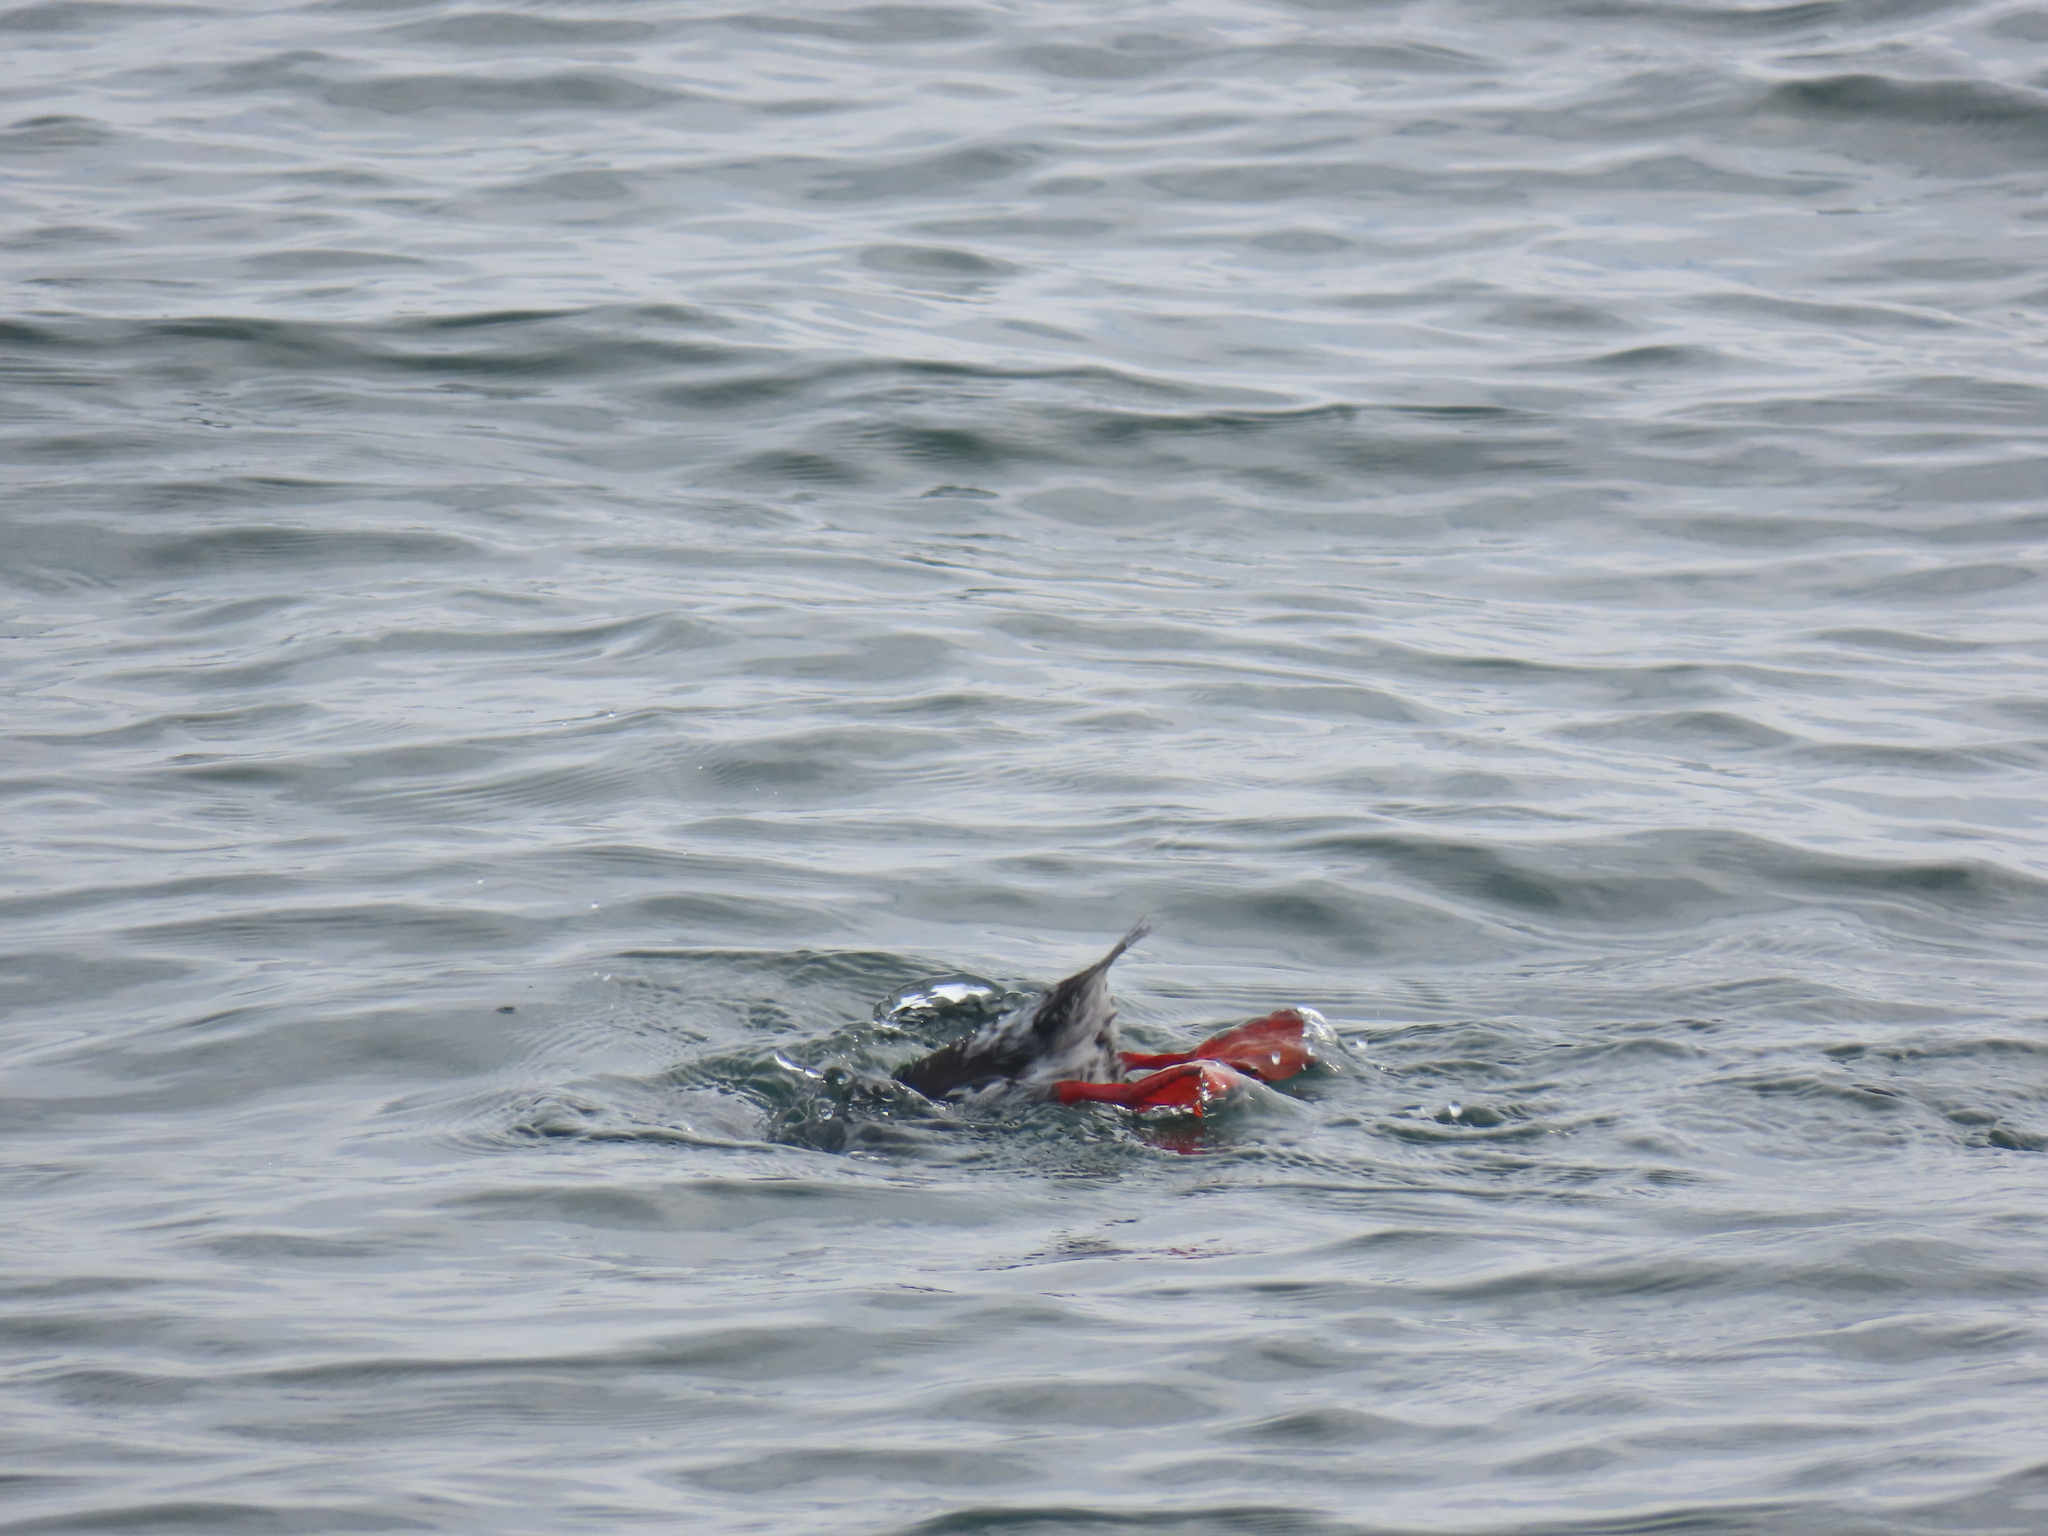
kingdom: Animalia
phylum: Chordata
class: Aves
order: Charadriiformes
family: Alcidae
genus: Cepphus
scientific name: Cepphus grylle
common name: Black guillemot
